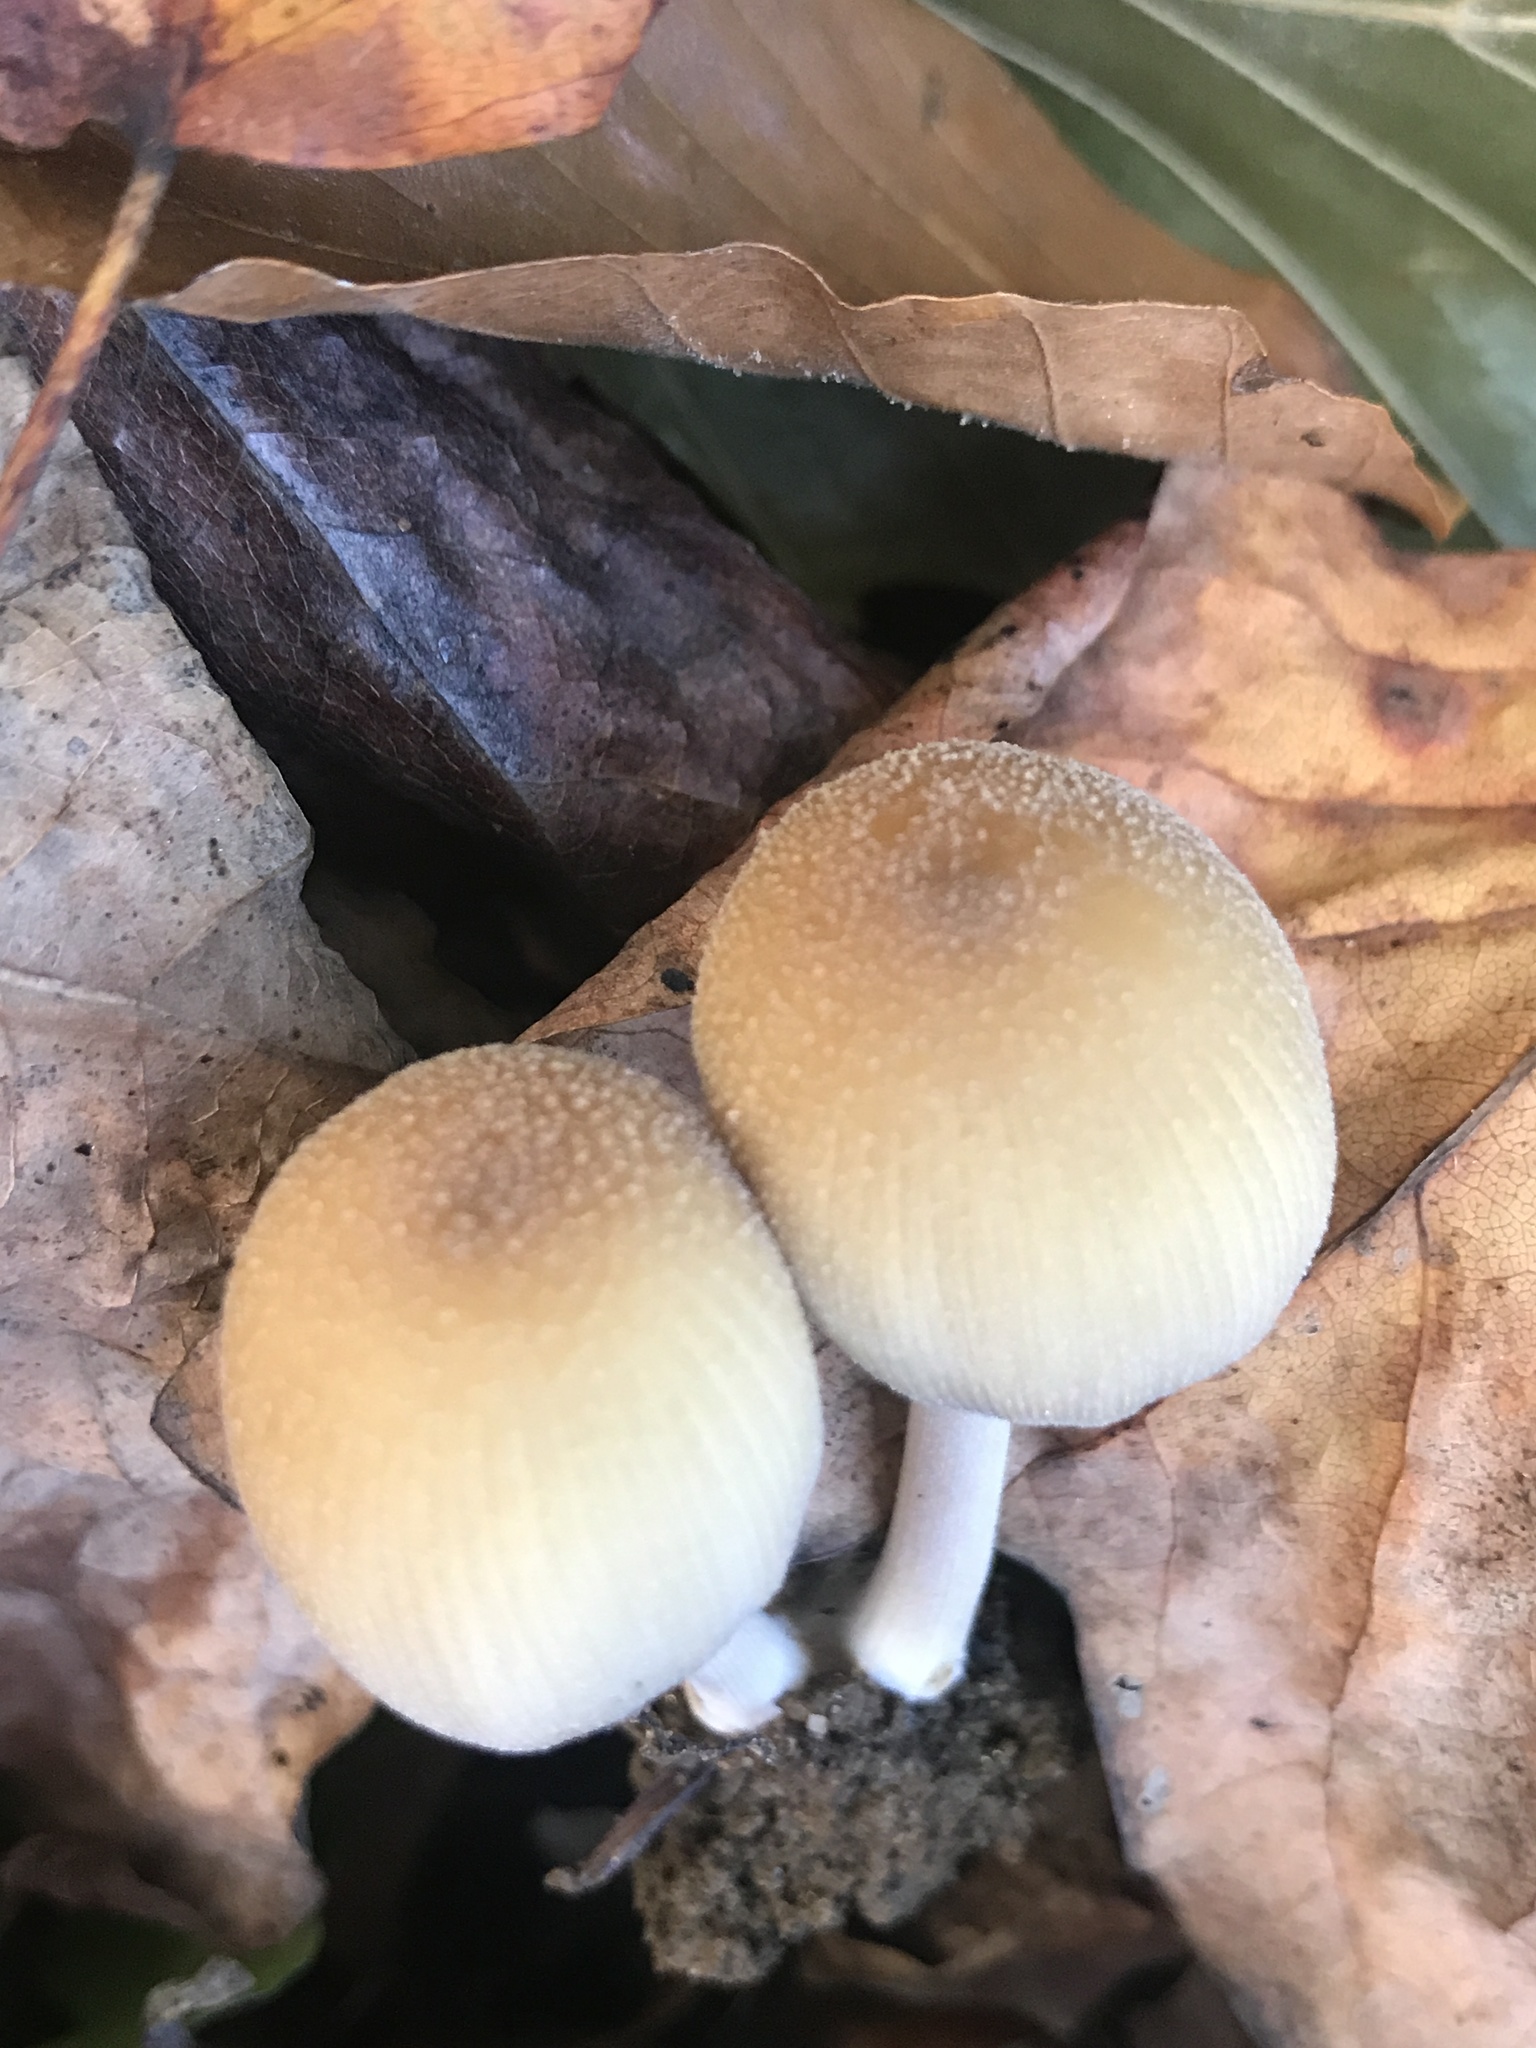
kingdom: Fungi
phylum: Basidiomycota
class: Agaricomycetes
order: Agaricales
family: Psathyrellaceae
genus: Coprinellus
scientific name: Coprinellus micaceus
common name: Glistening ink-cap
